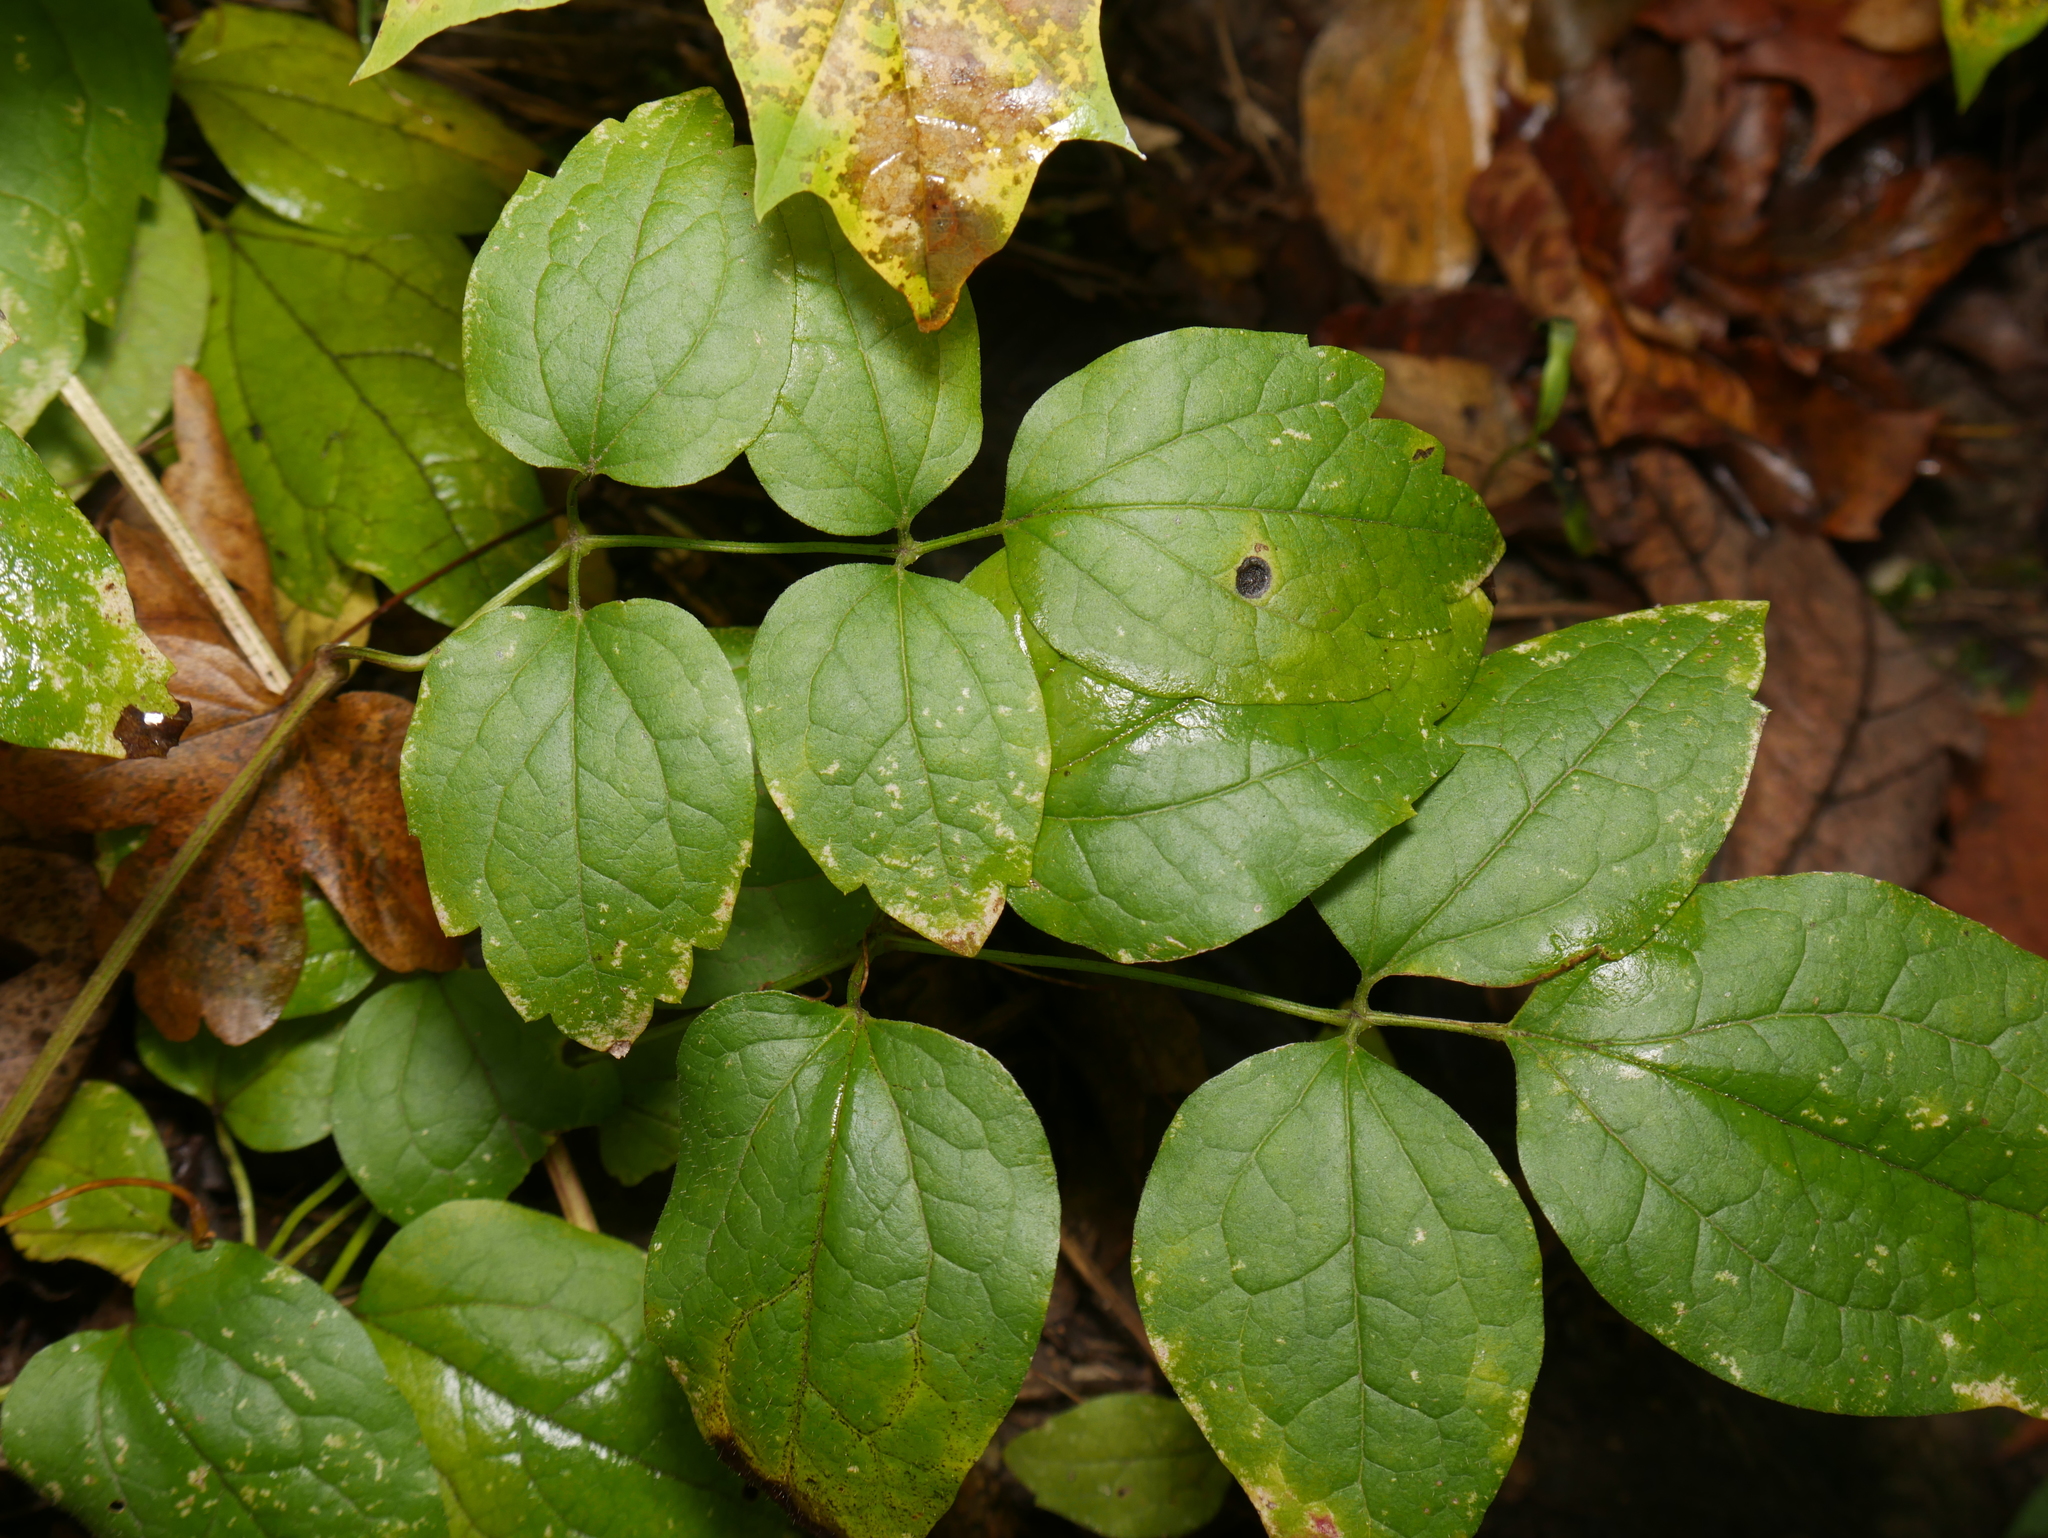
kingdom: Plantae
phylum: Tracheophyta
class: Magnoliopsida
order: Ranunculales
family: Ranunculaceae
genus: Clematis
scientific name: Clematis vitalba
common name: Evergreen clematis
